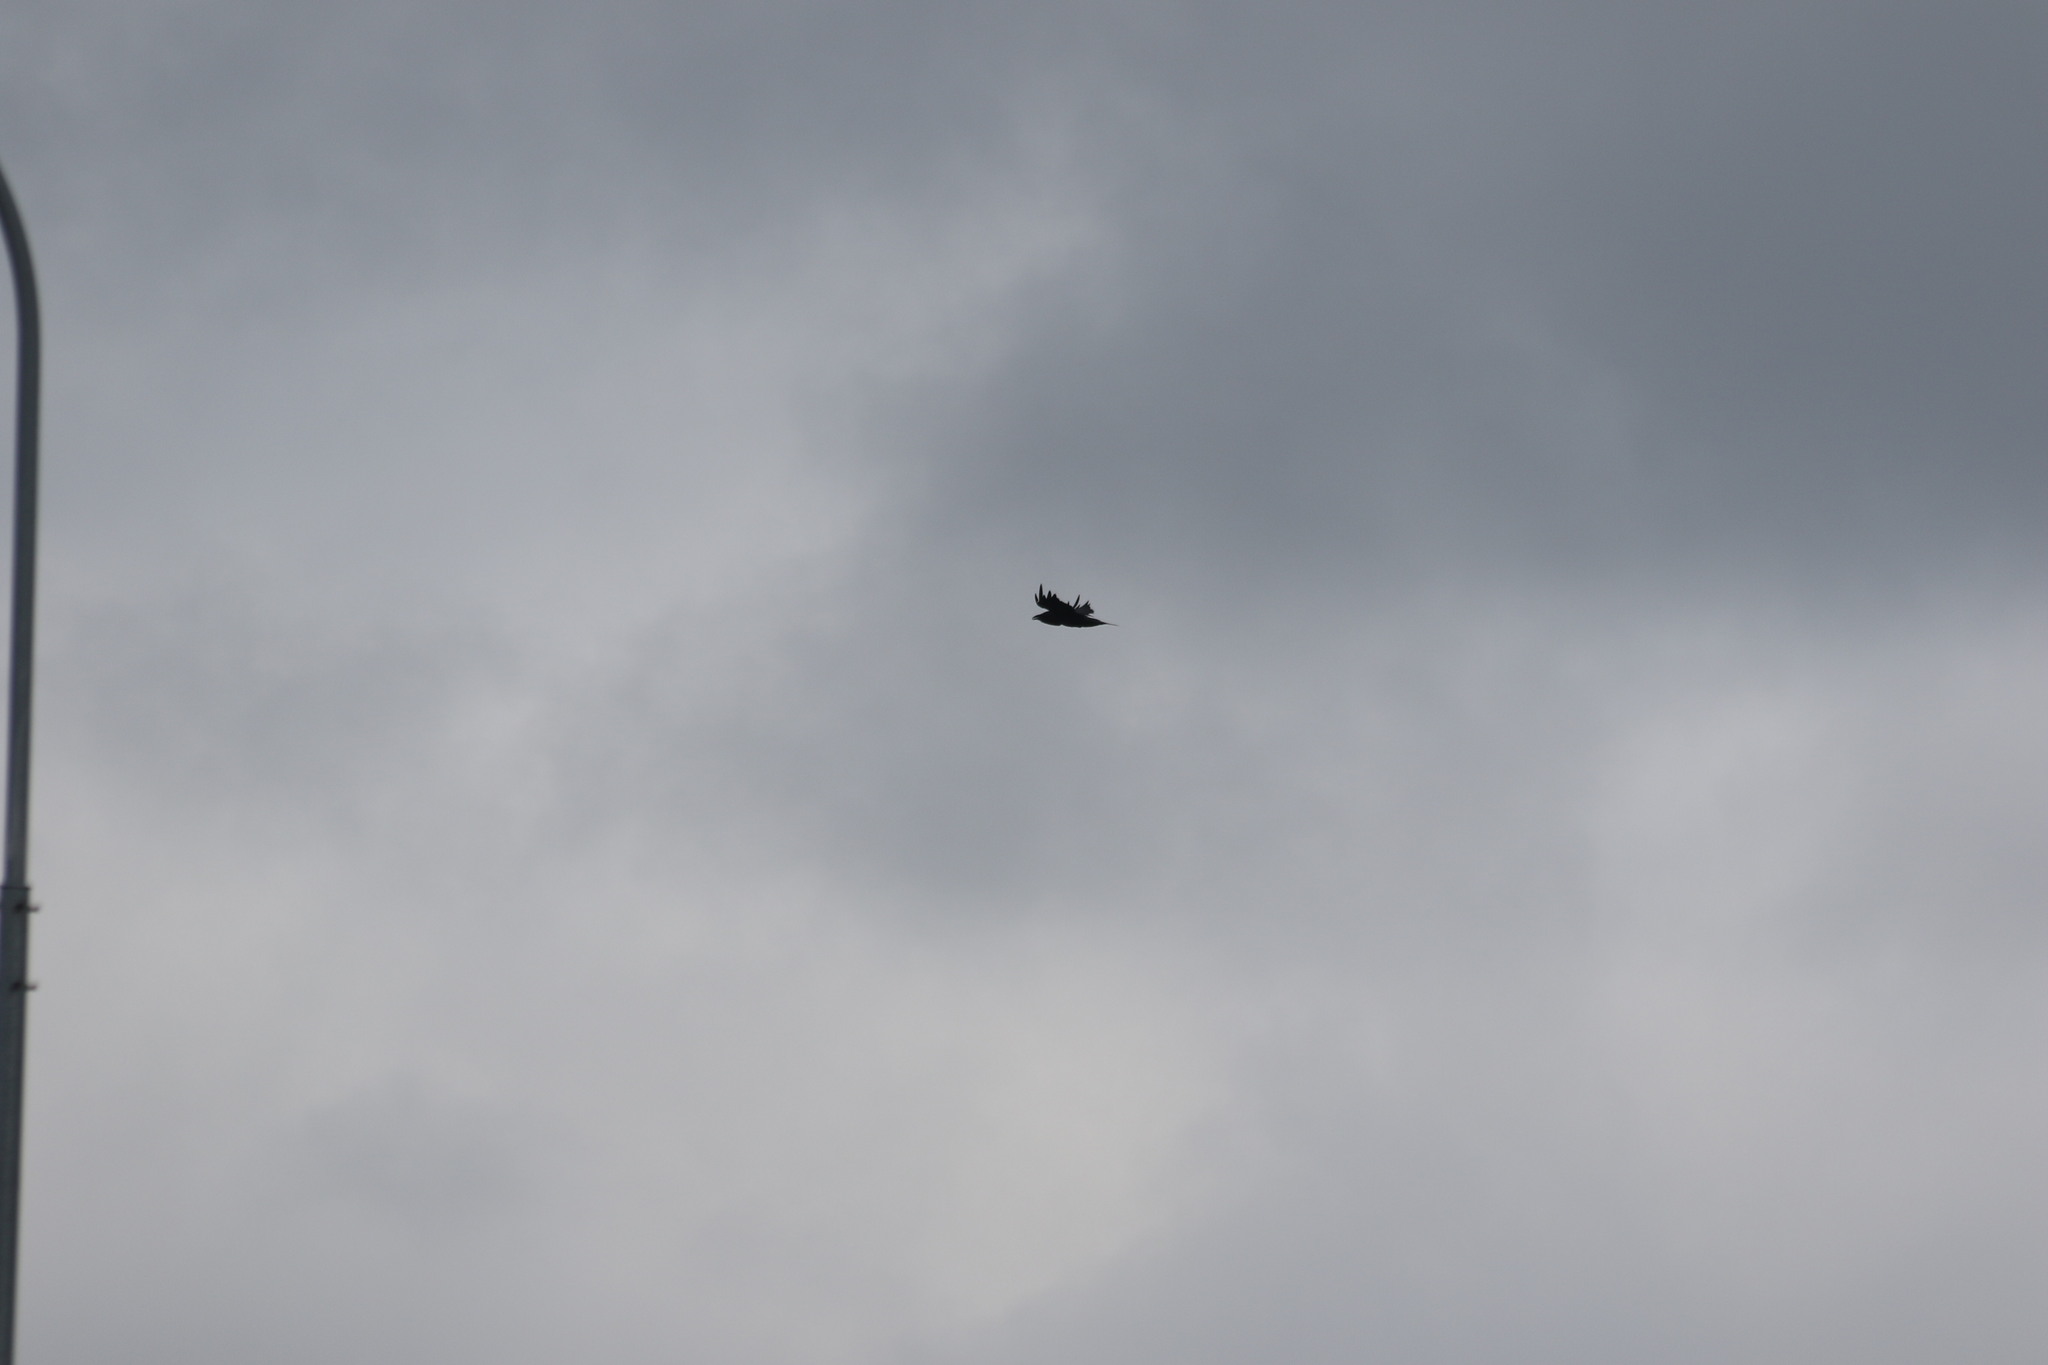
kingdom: Animalia
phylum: Chordata
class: Aves
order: Passeriformes
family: Corvidae
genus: Corvus
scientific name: Corvus corax
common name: Common raven
